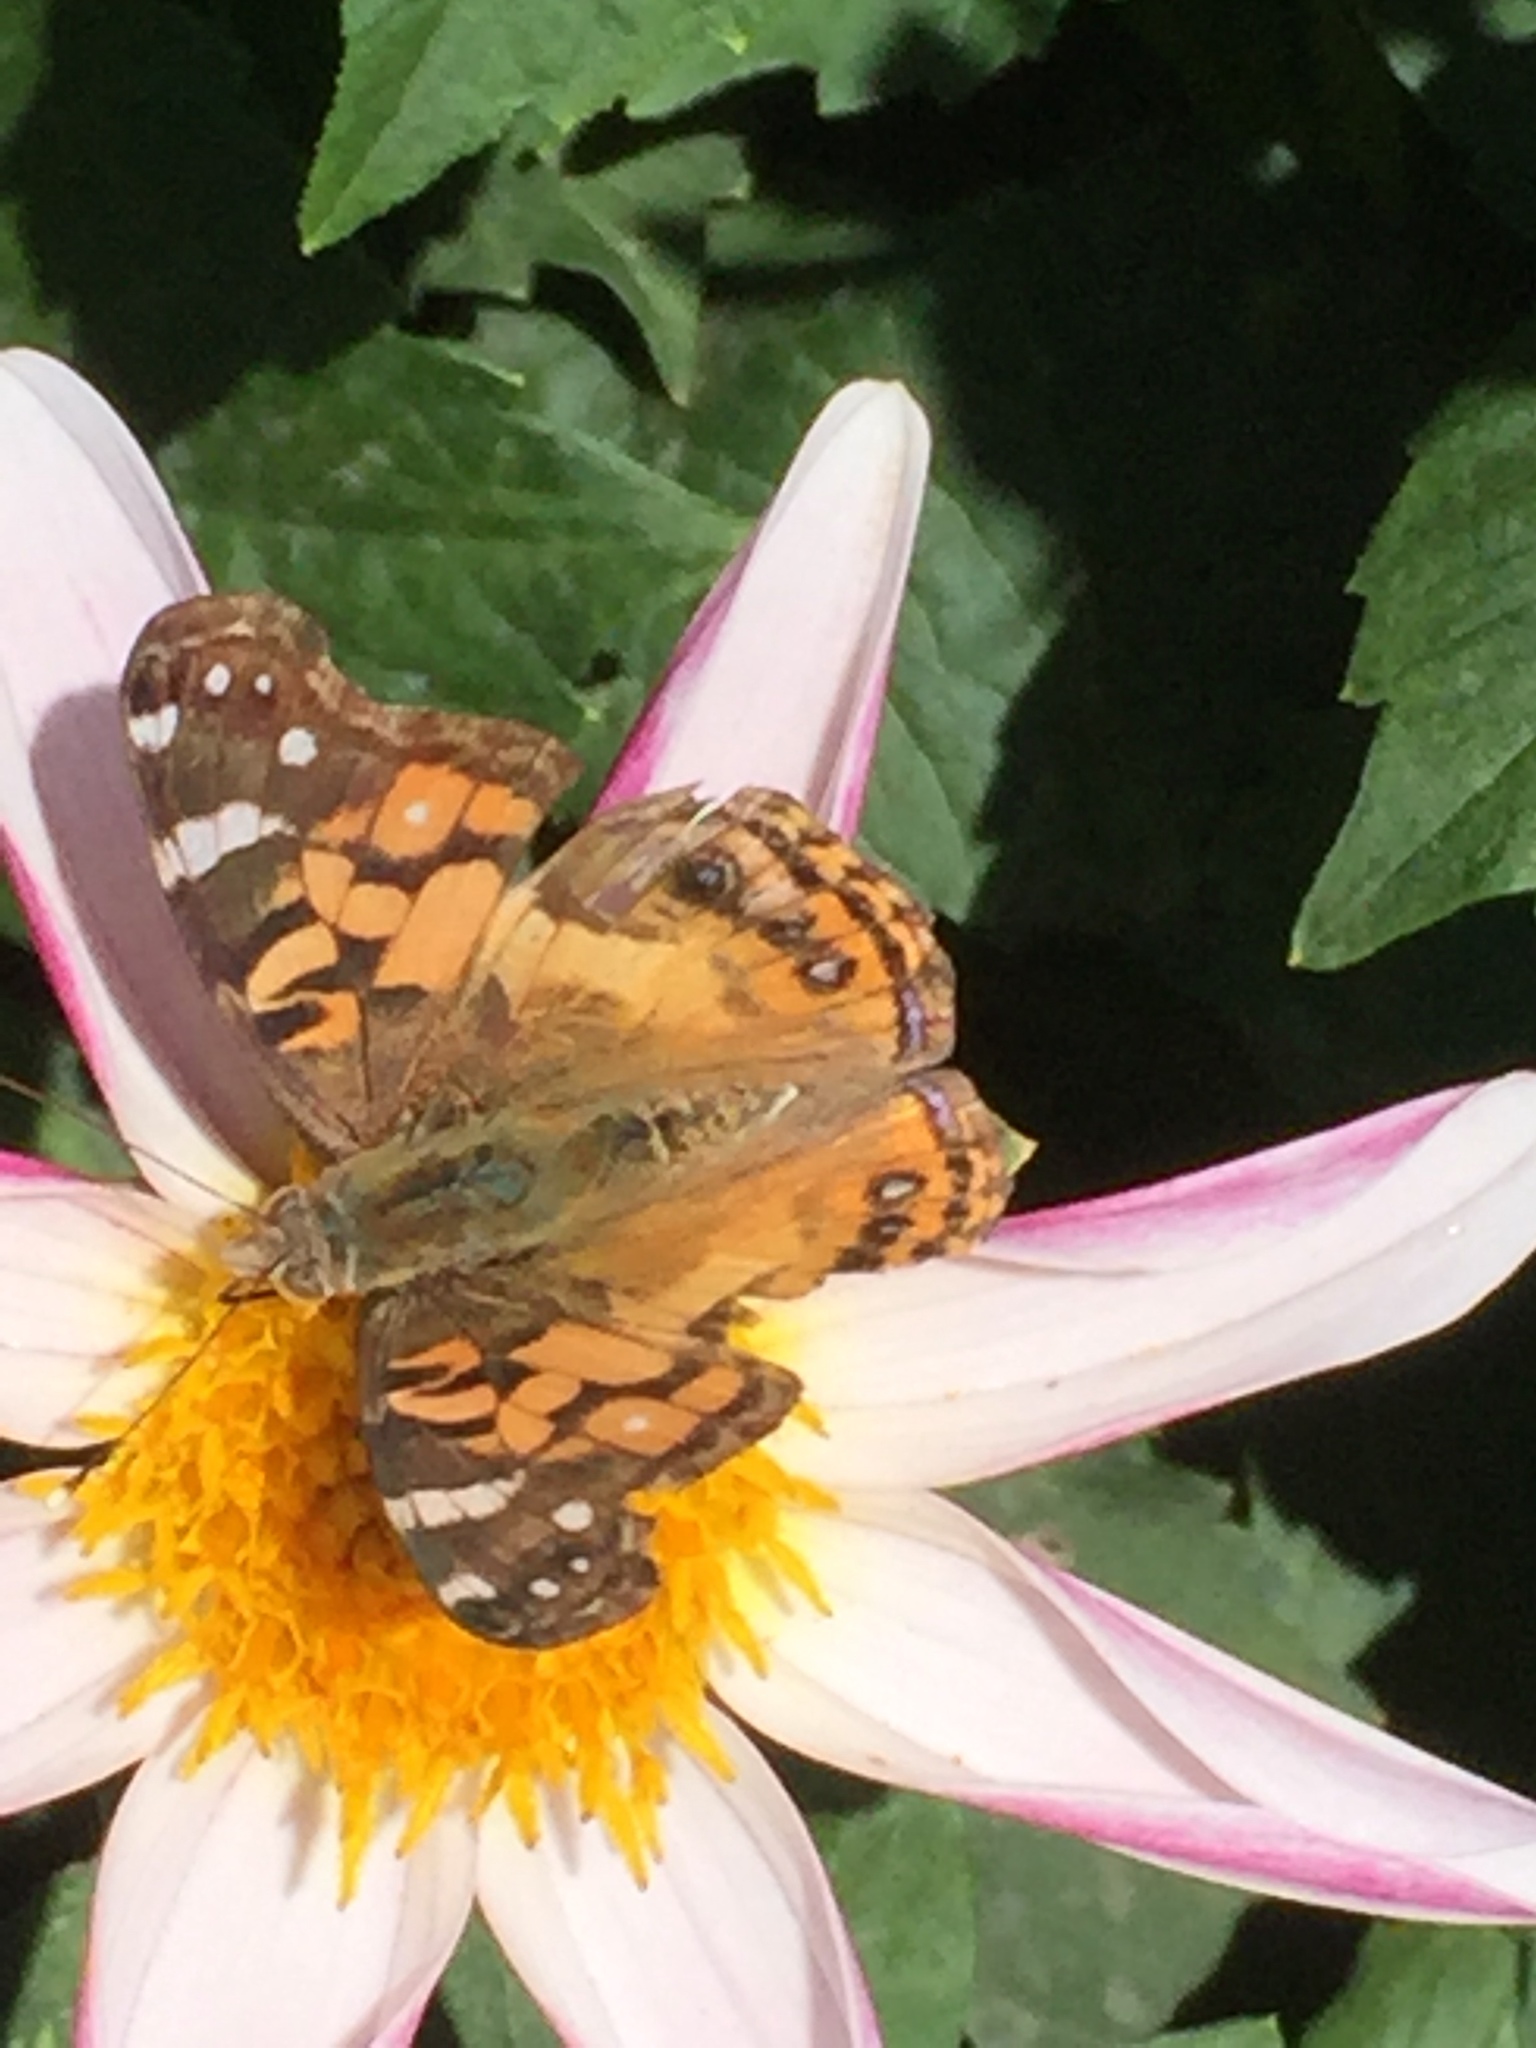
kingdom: Animalia
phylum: Arthropoda
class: Insecta
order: Lepidoptera
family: Nymphalidae
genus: Vanessa
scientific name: Vanessa cardui
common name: Painted lady
